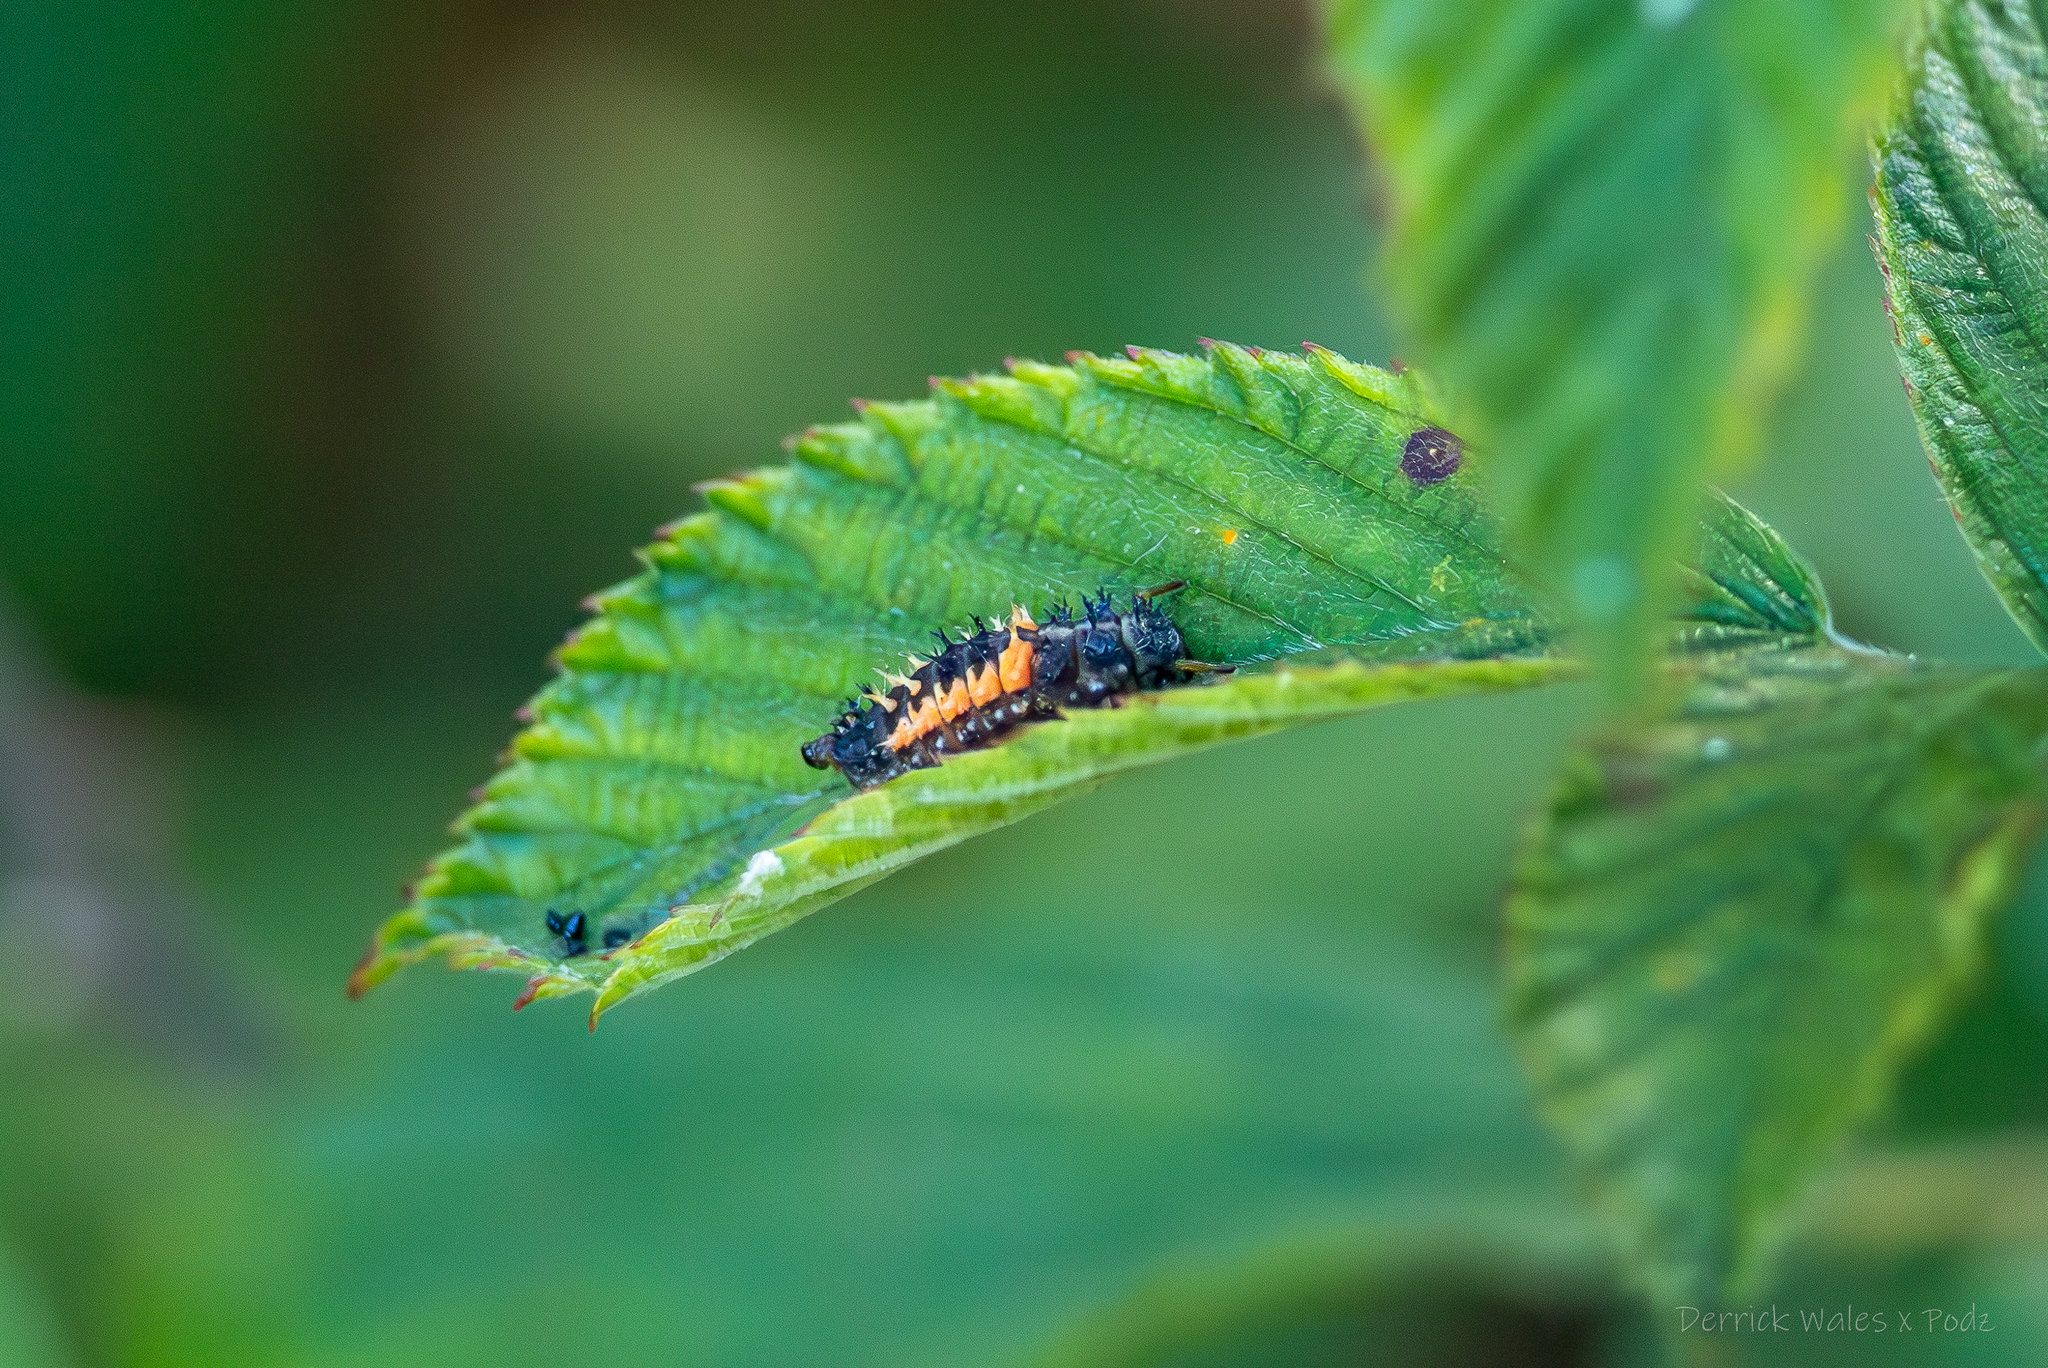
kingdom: Animalia
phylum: Arthropoda
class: Insecta
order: Coleoptera
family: Coccinellidae
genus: Harmonia
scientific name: Harmonia axyridis
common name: Harlequin ladybird
